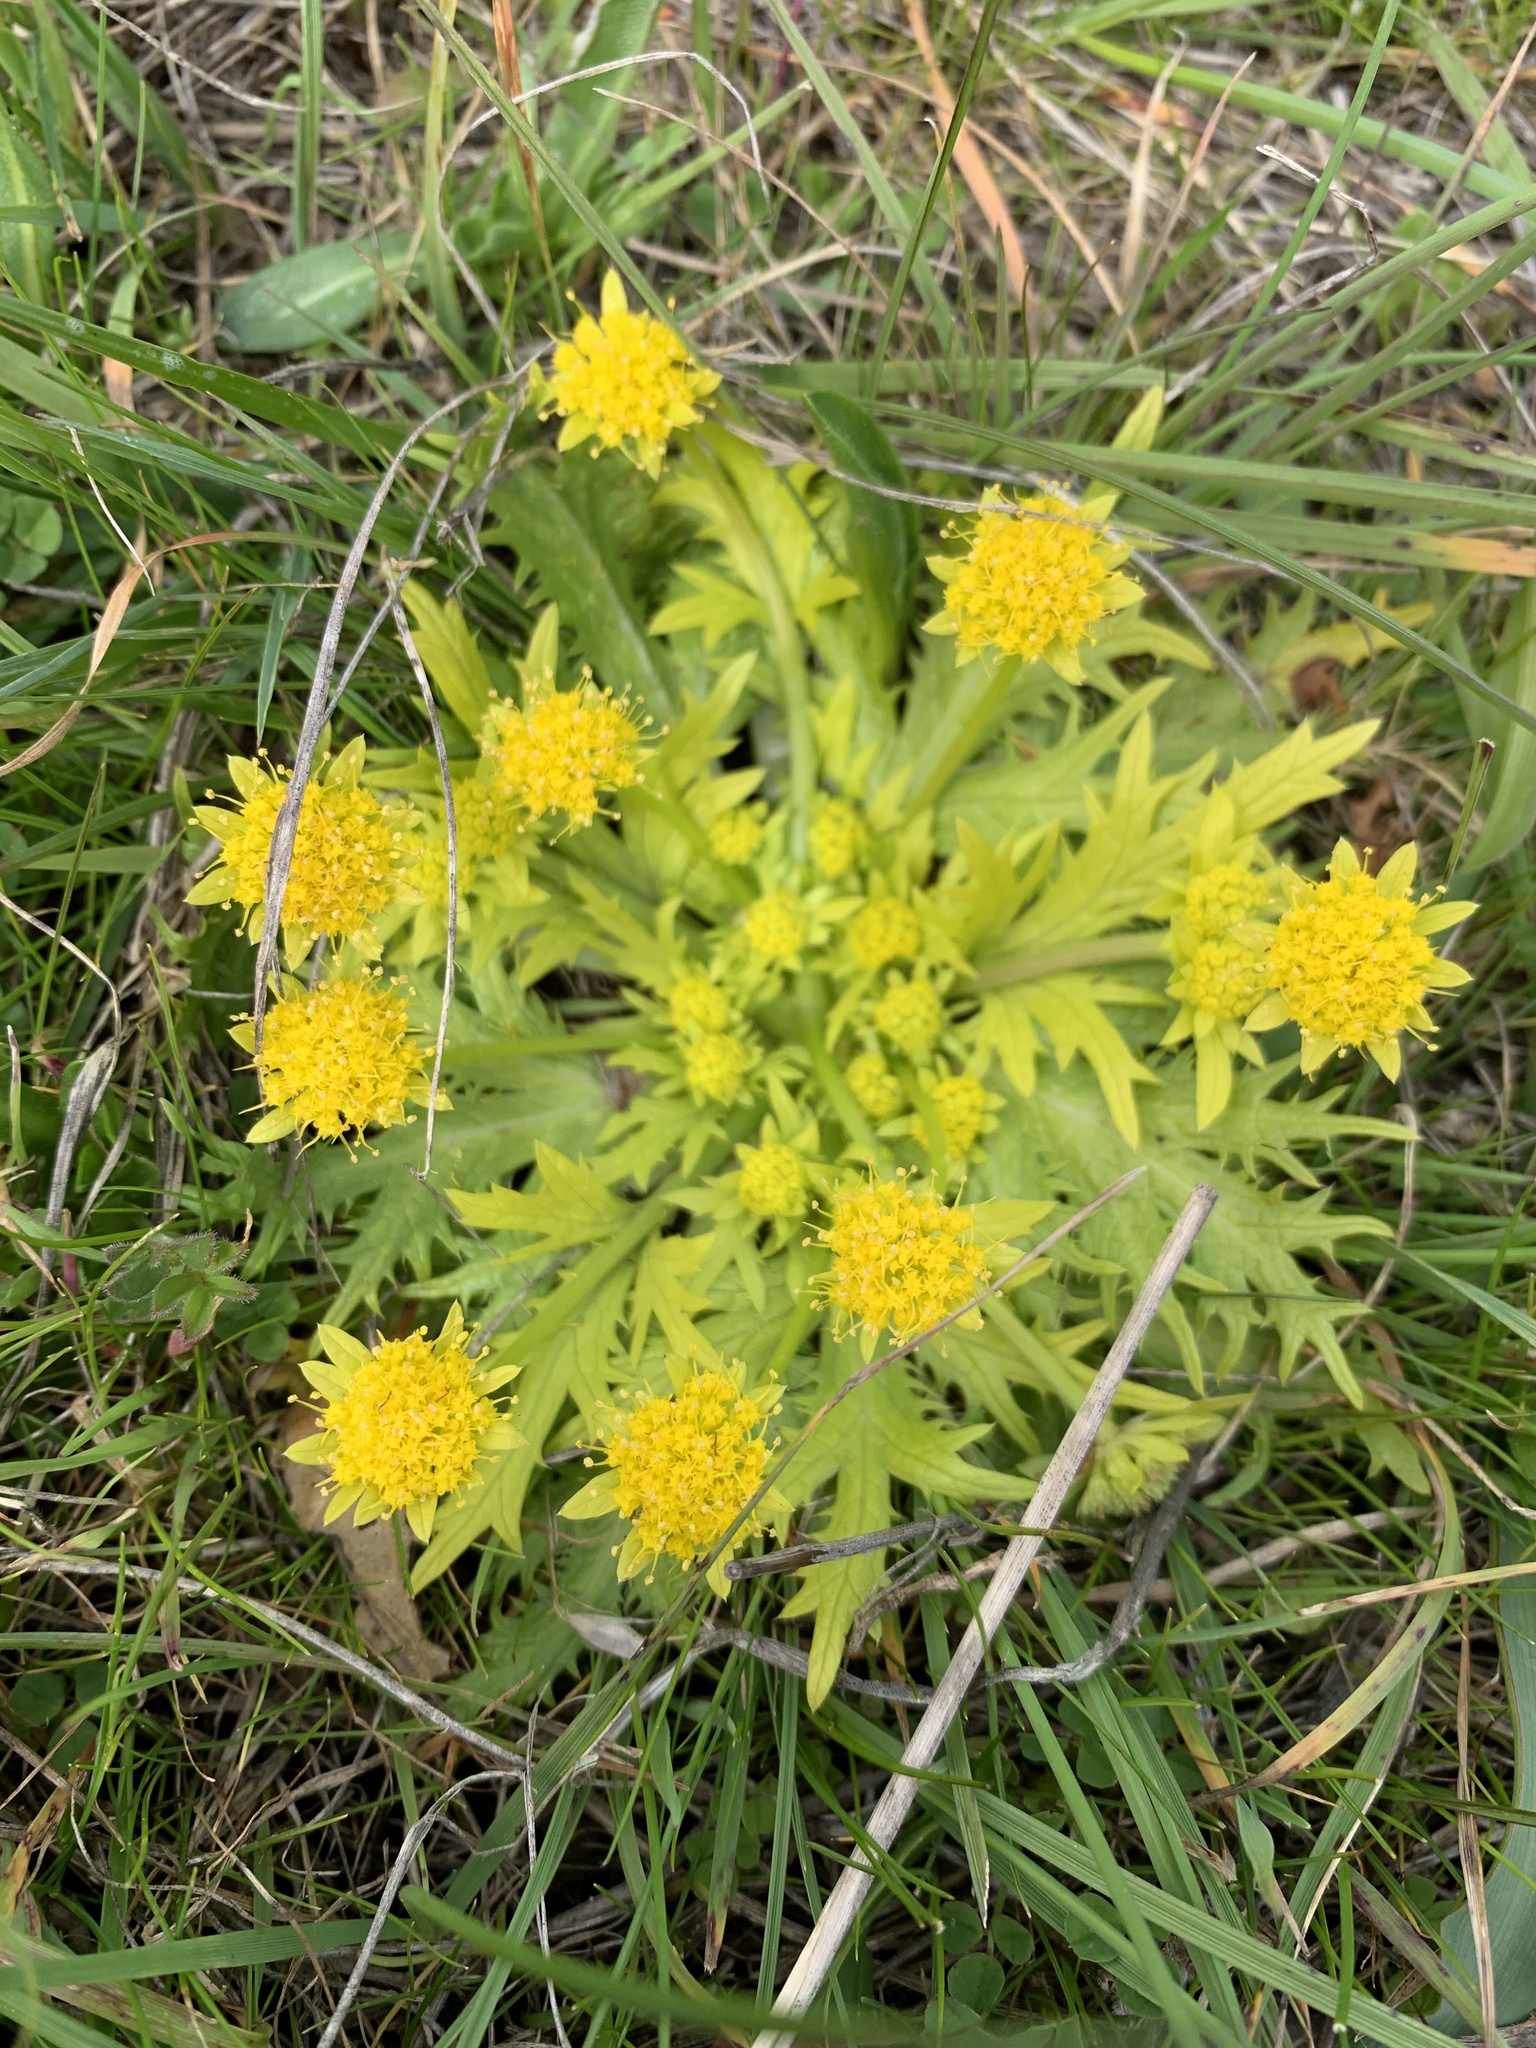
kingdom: Plantae
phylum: Tracheophyta
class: Magnoliopsida
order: Apiales
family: Apiaceae
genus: Sanicula
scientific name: Sanicula arctopoides
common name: Footsteps-of-spring
